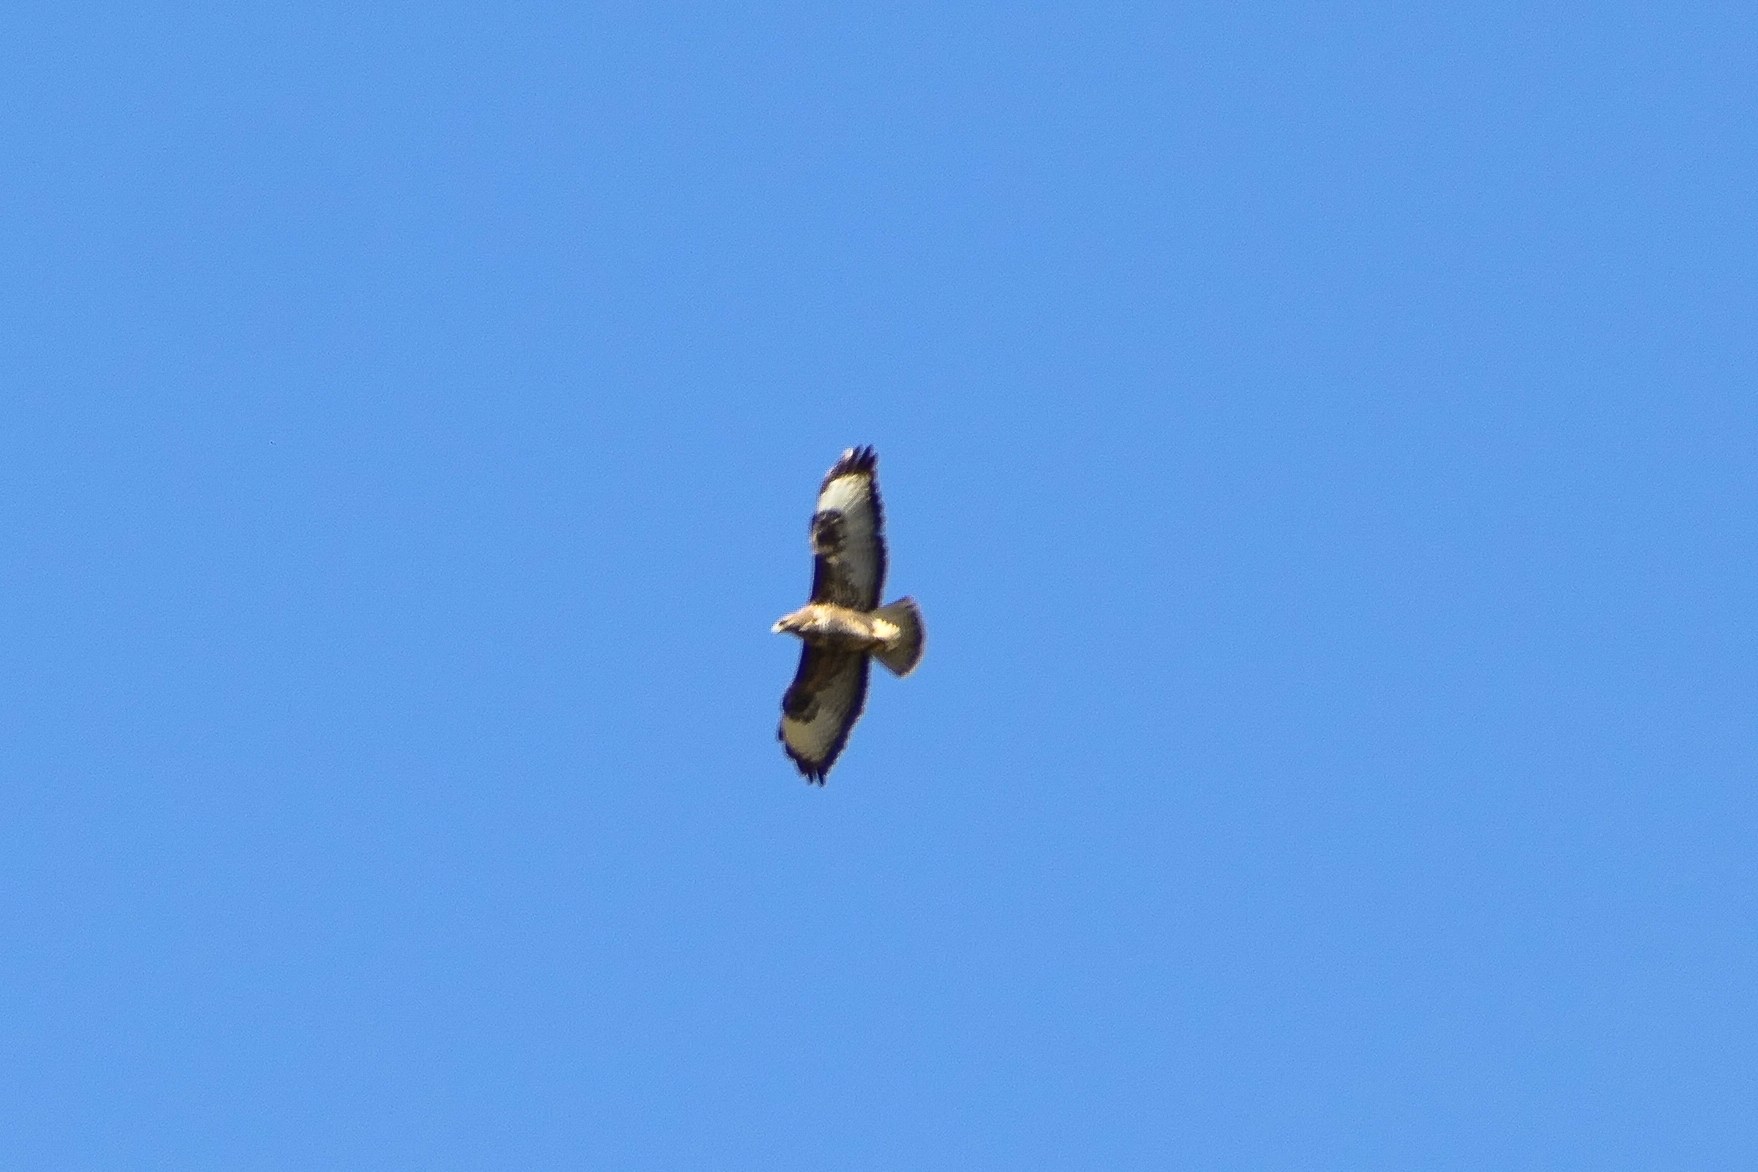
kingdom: Animalia
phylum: Chordata
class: Aves
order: Accipitriformes
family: Accipitridae
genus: Buteo
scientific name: Buteo buteo
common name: Common buzzard
